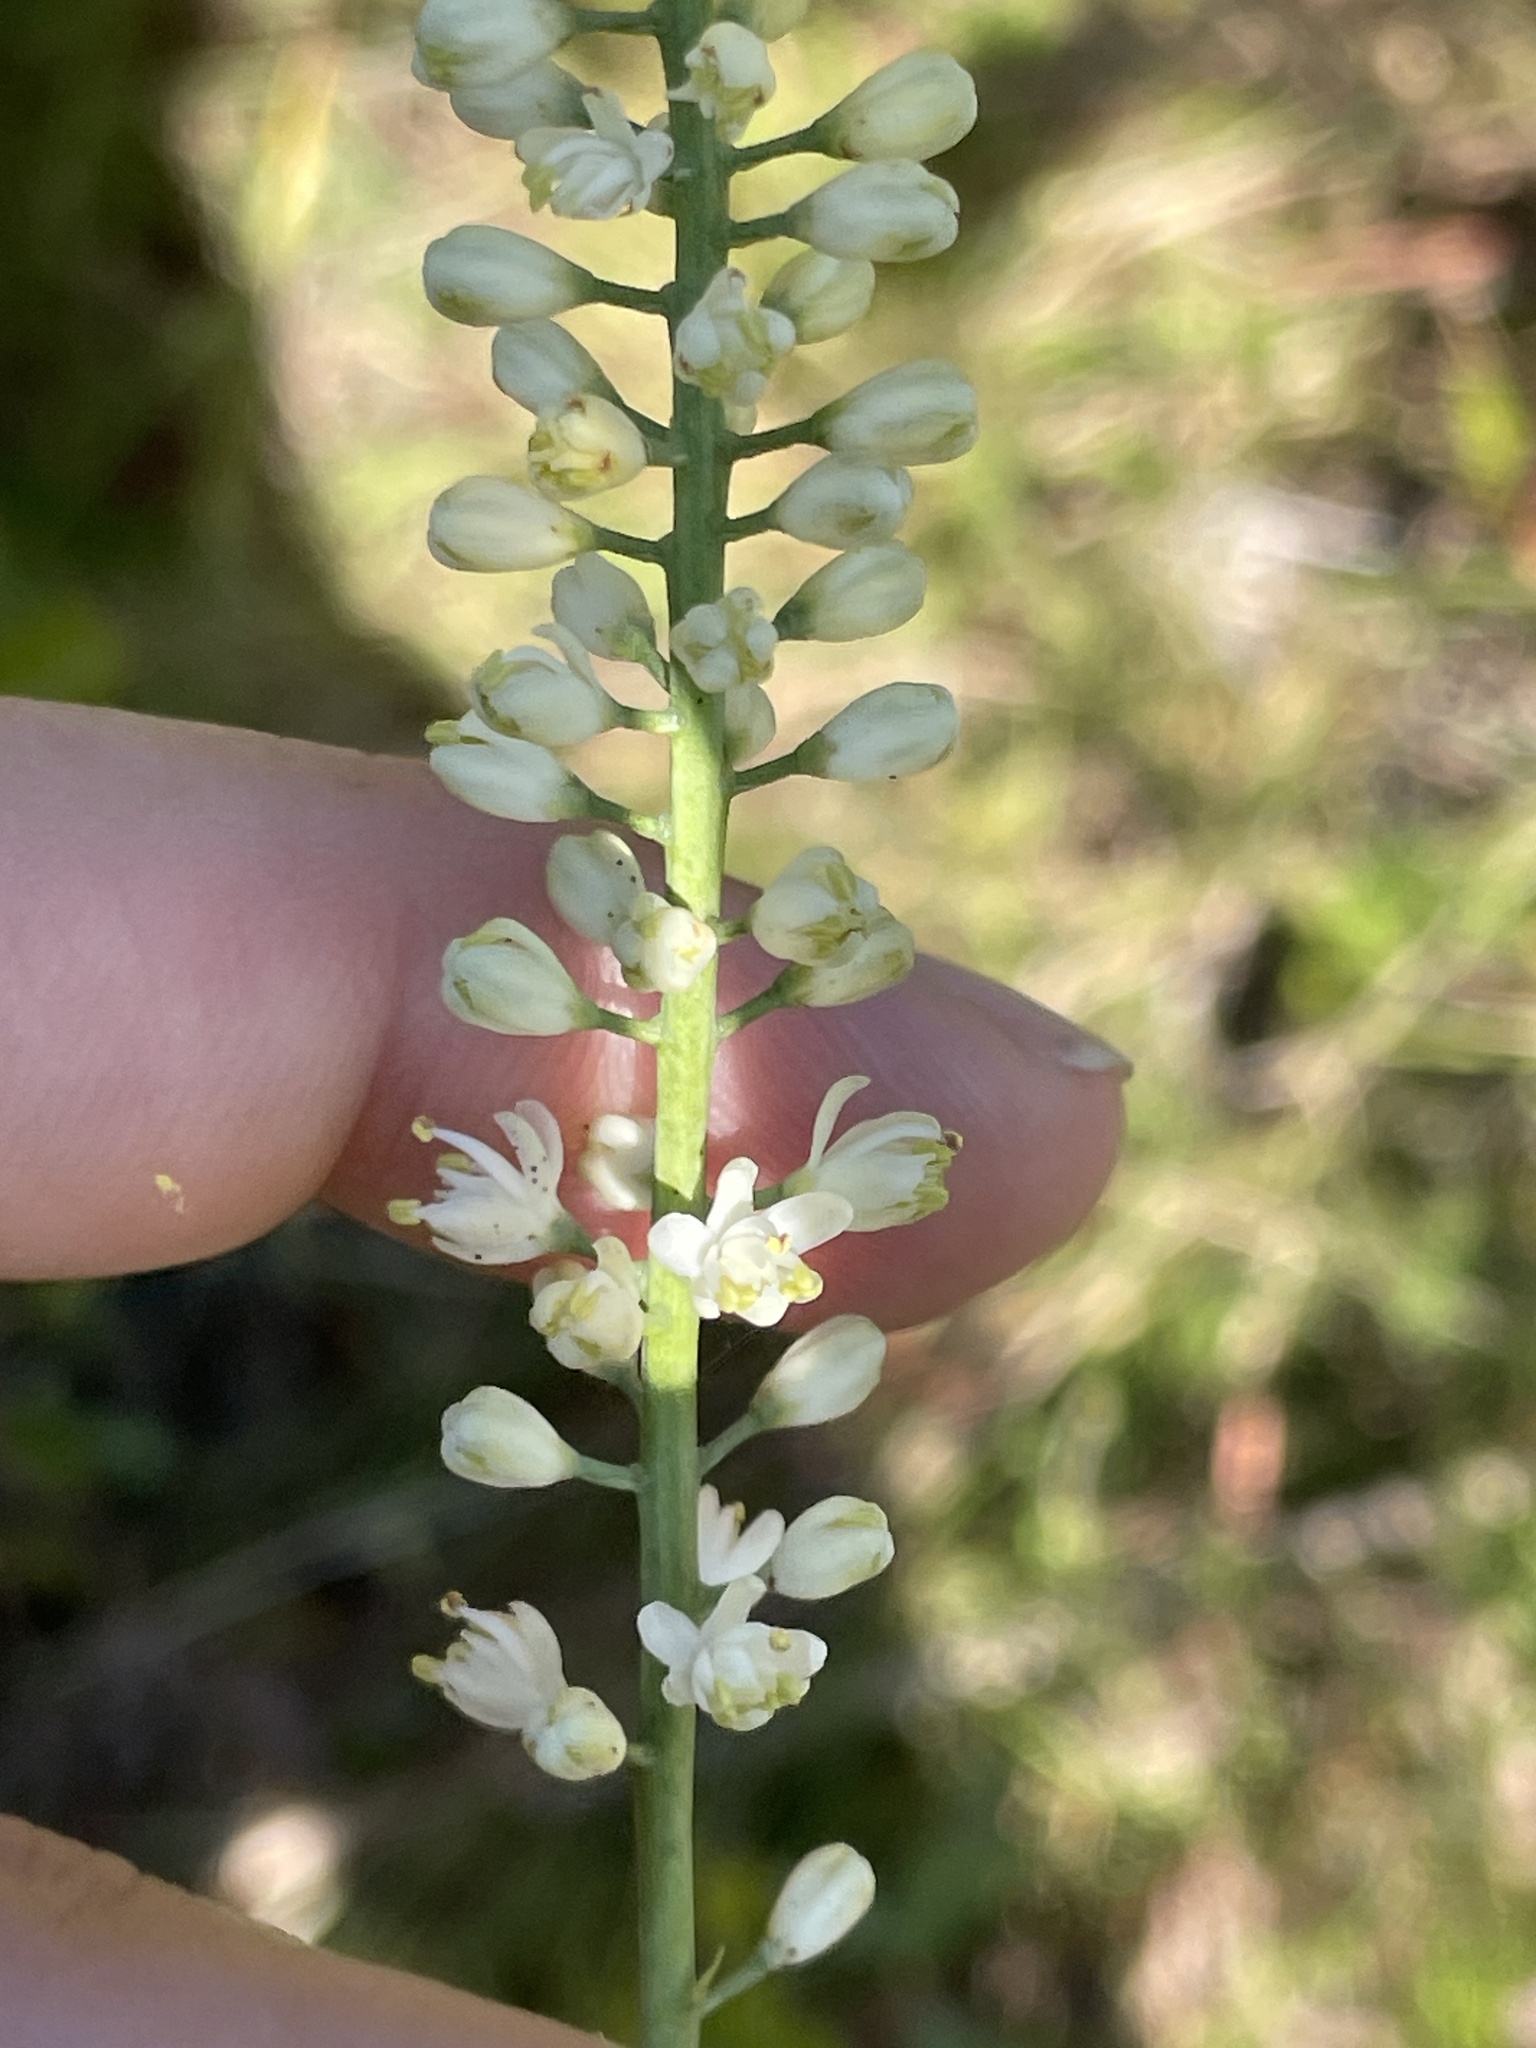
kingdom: Plantae
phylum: Tracheophyta
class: Liliopsida
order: Alismatales
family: Tofieldiaceae
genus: Tofieldia
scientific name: Tofieldia glabra
